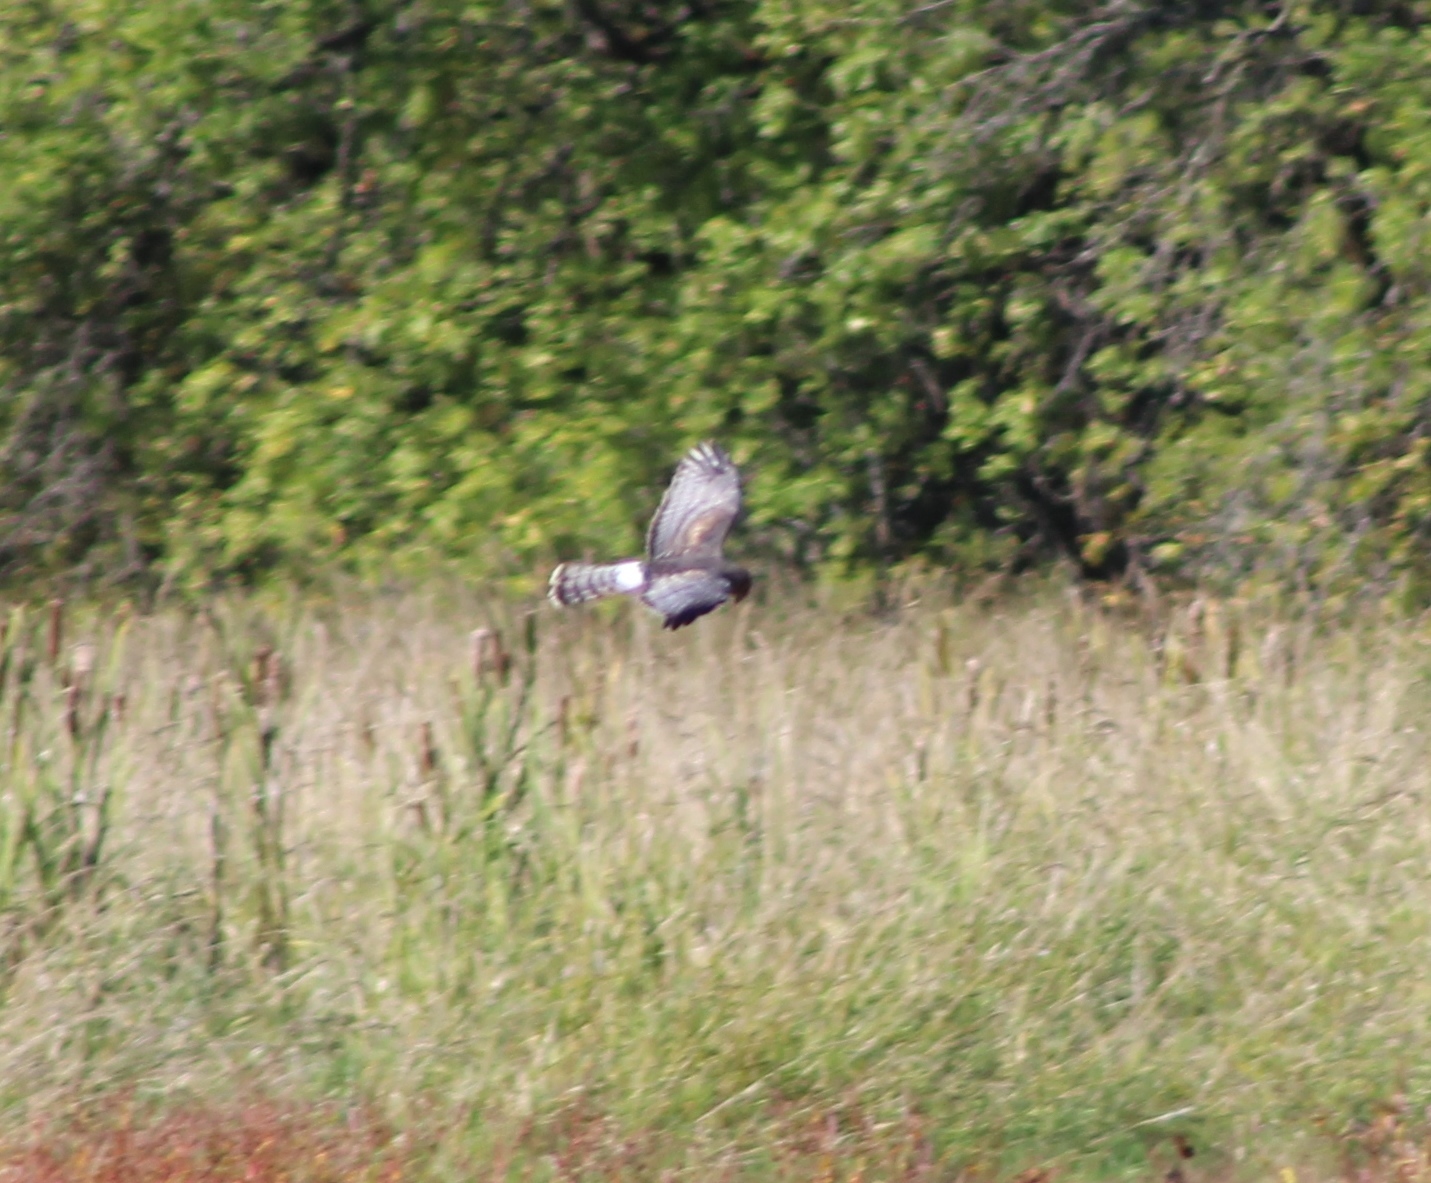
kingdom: Animalia
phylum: Chordata
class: Aves
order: Accipitriformes
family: Accipitridae
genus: Circus
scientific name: Circus cyaneus
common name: Hen harrier
